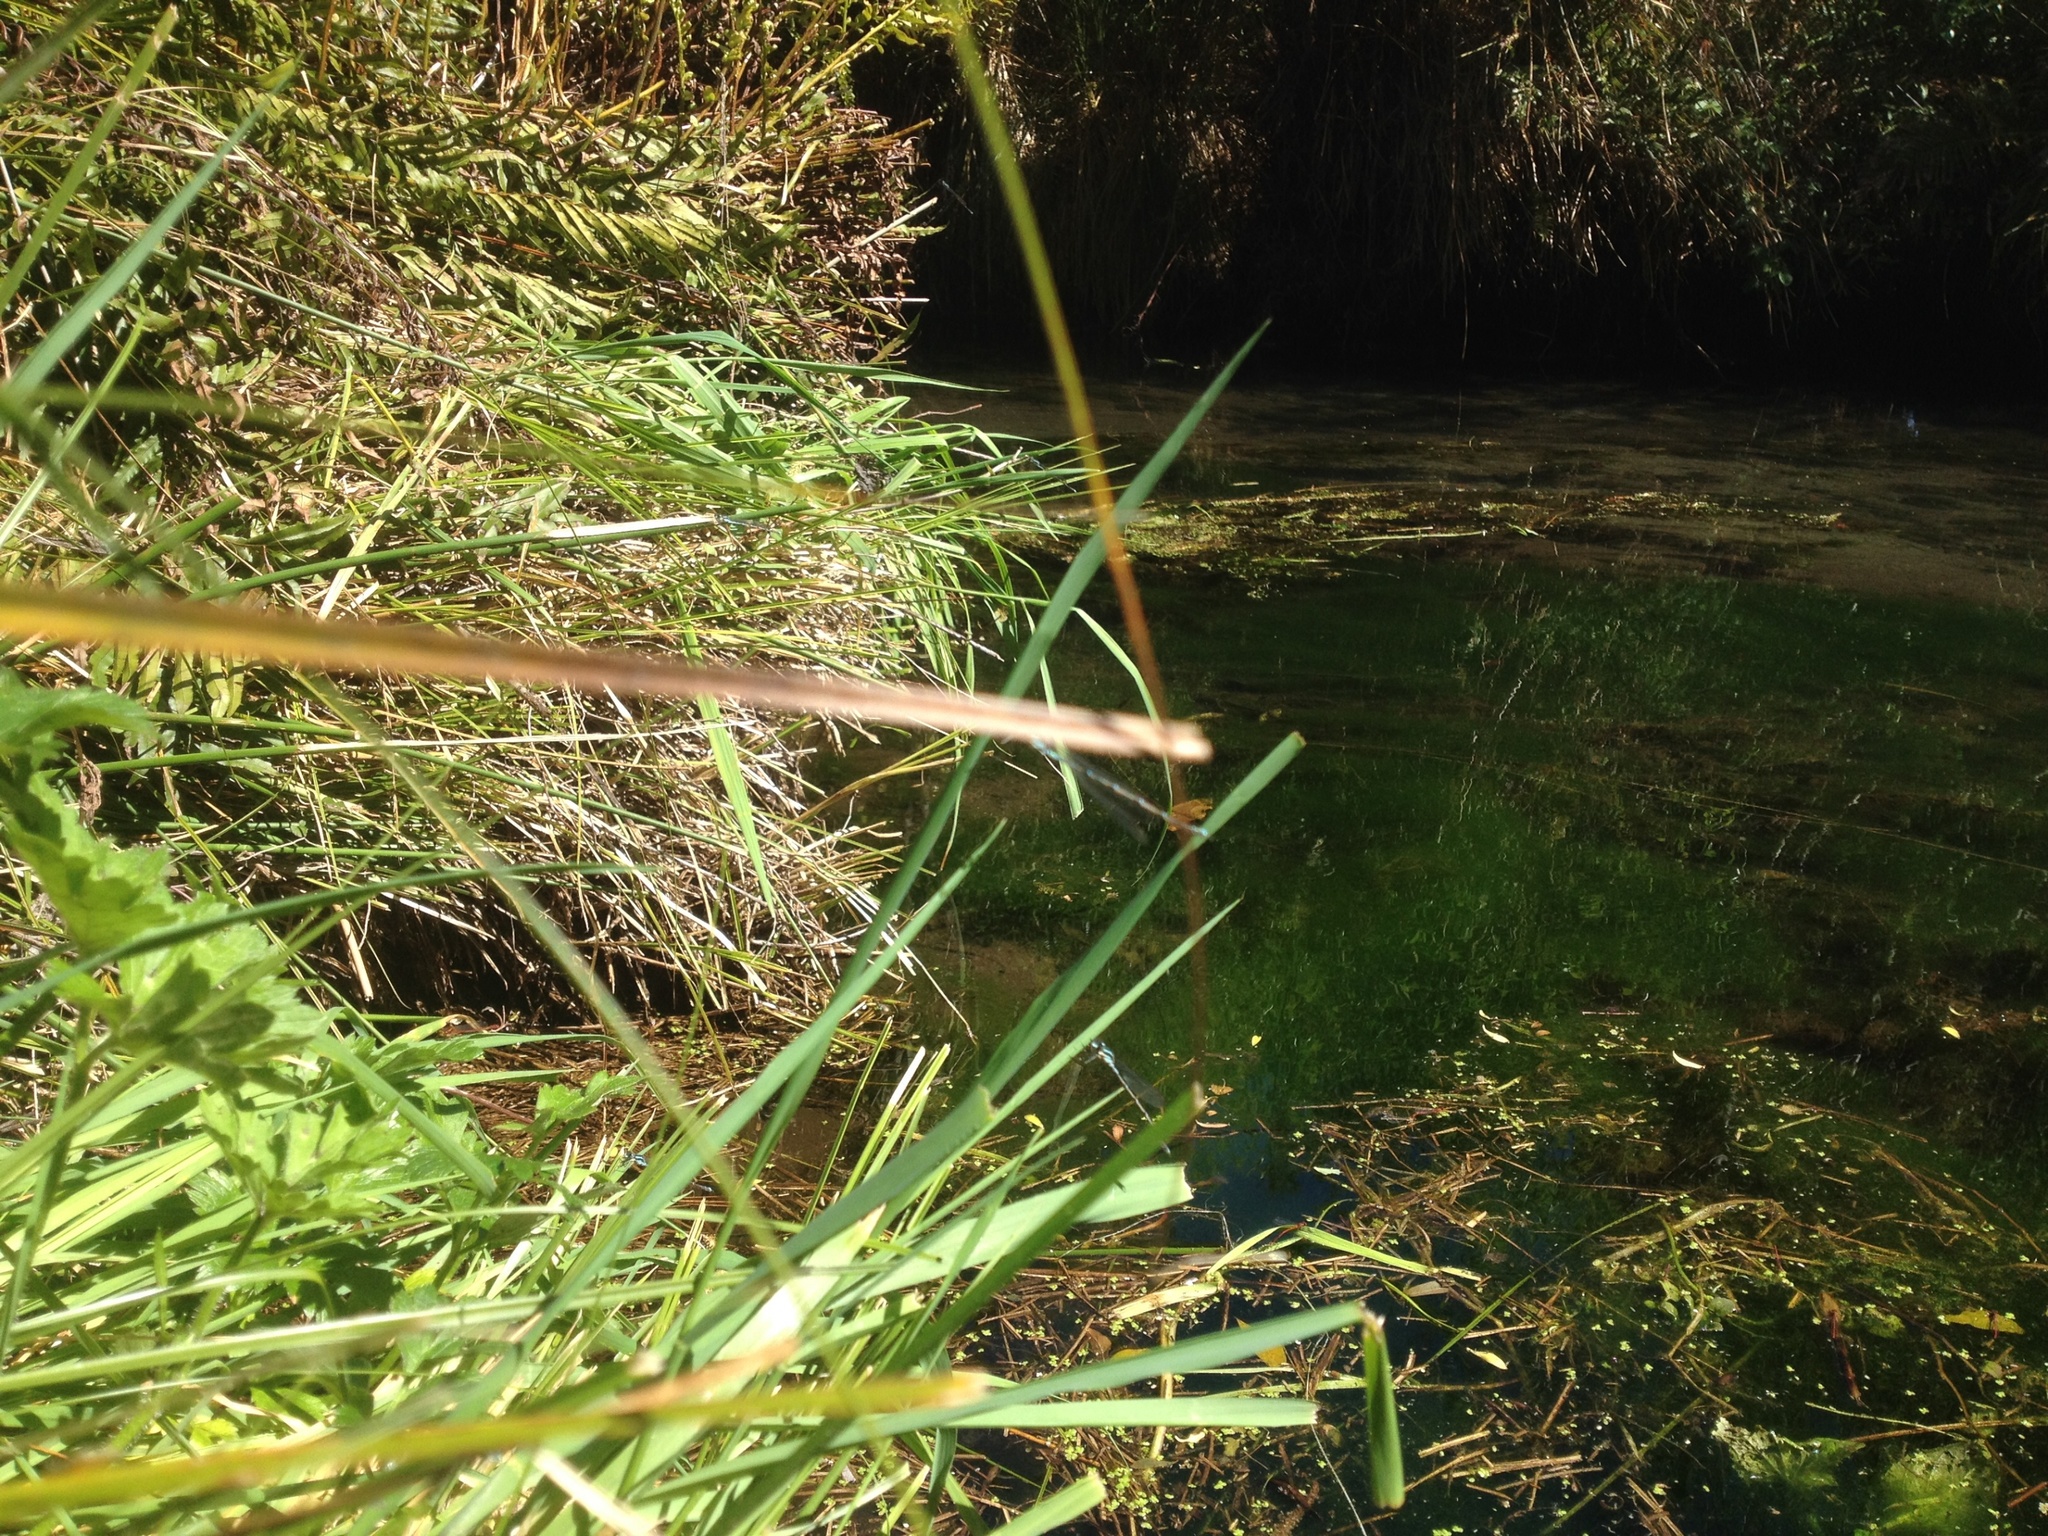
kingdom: Animalia
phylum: Arthropoda
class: Insecta
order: Odonata
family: Lestidae
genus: Austrolestes
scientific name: Austrolestes colensonis
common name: Blue damselfly
